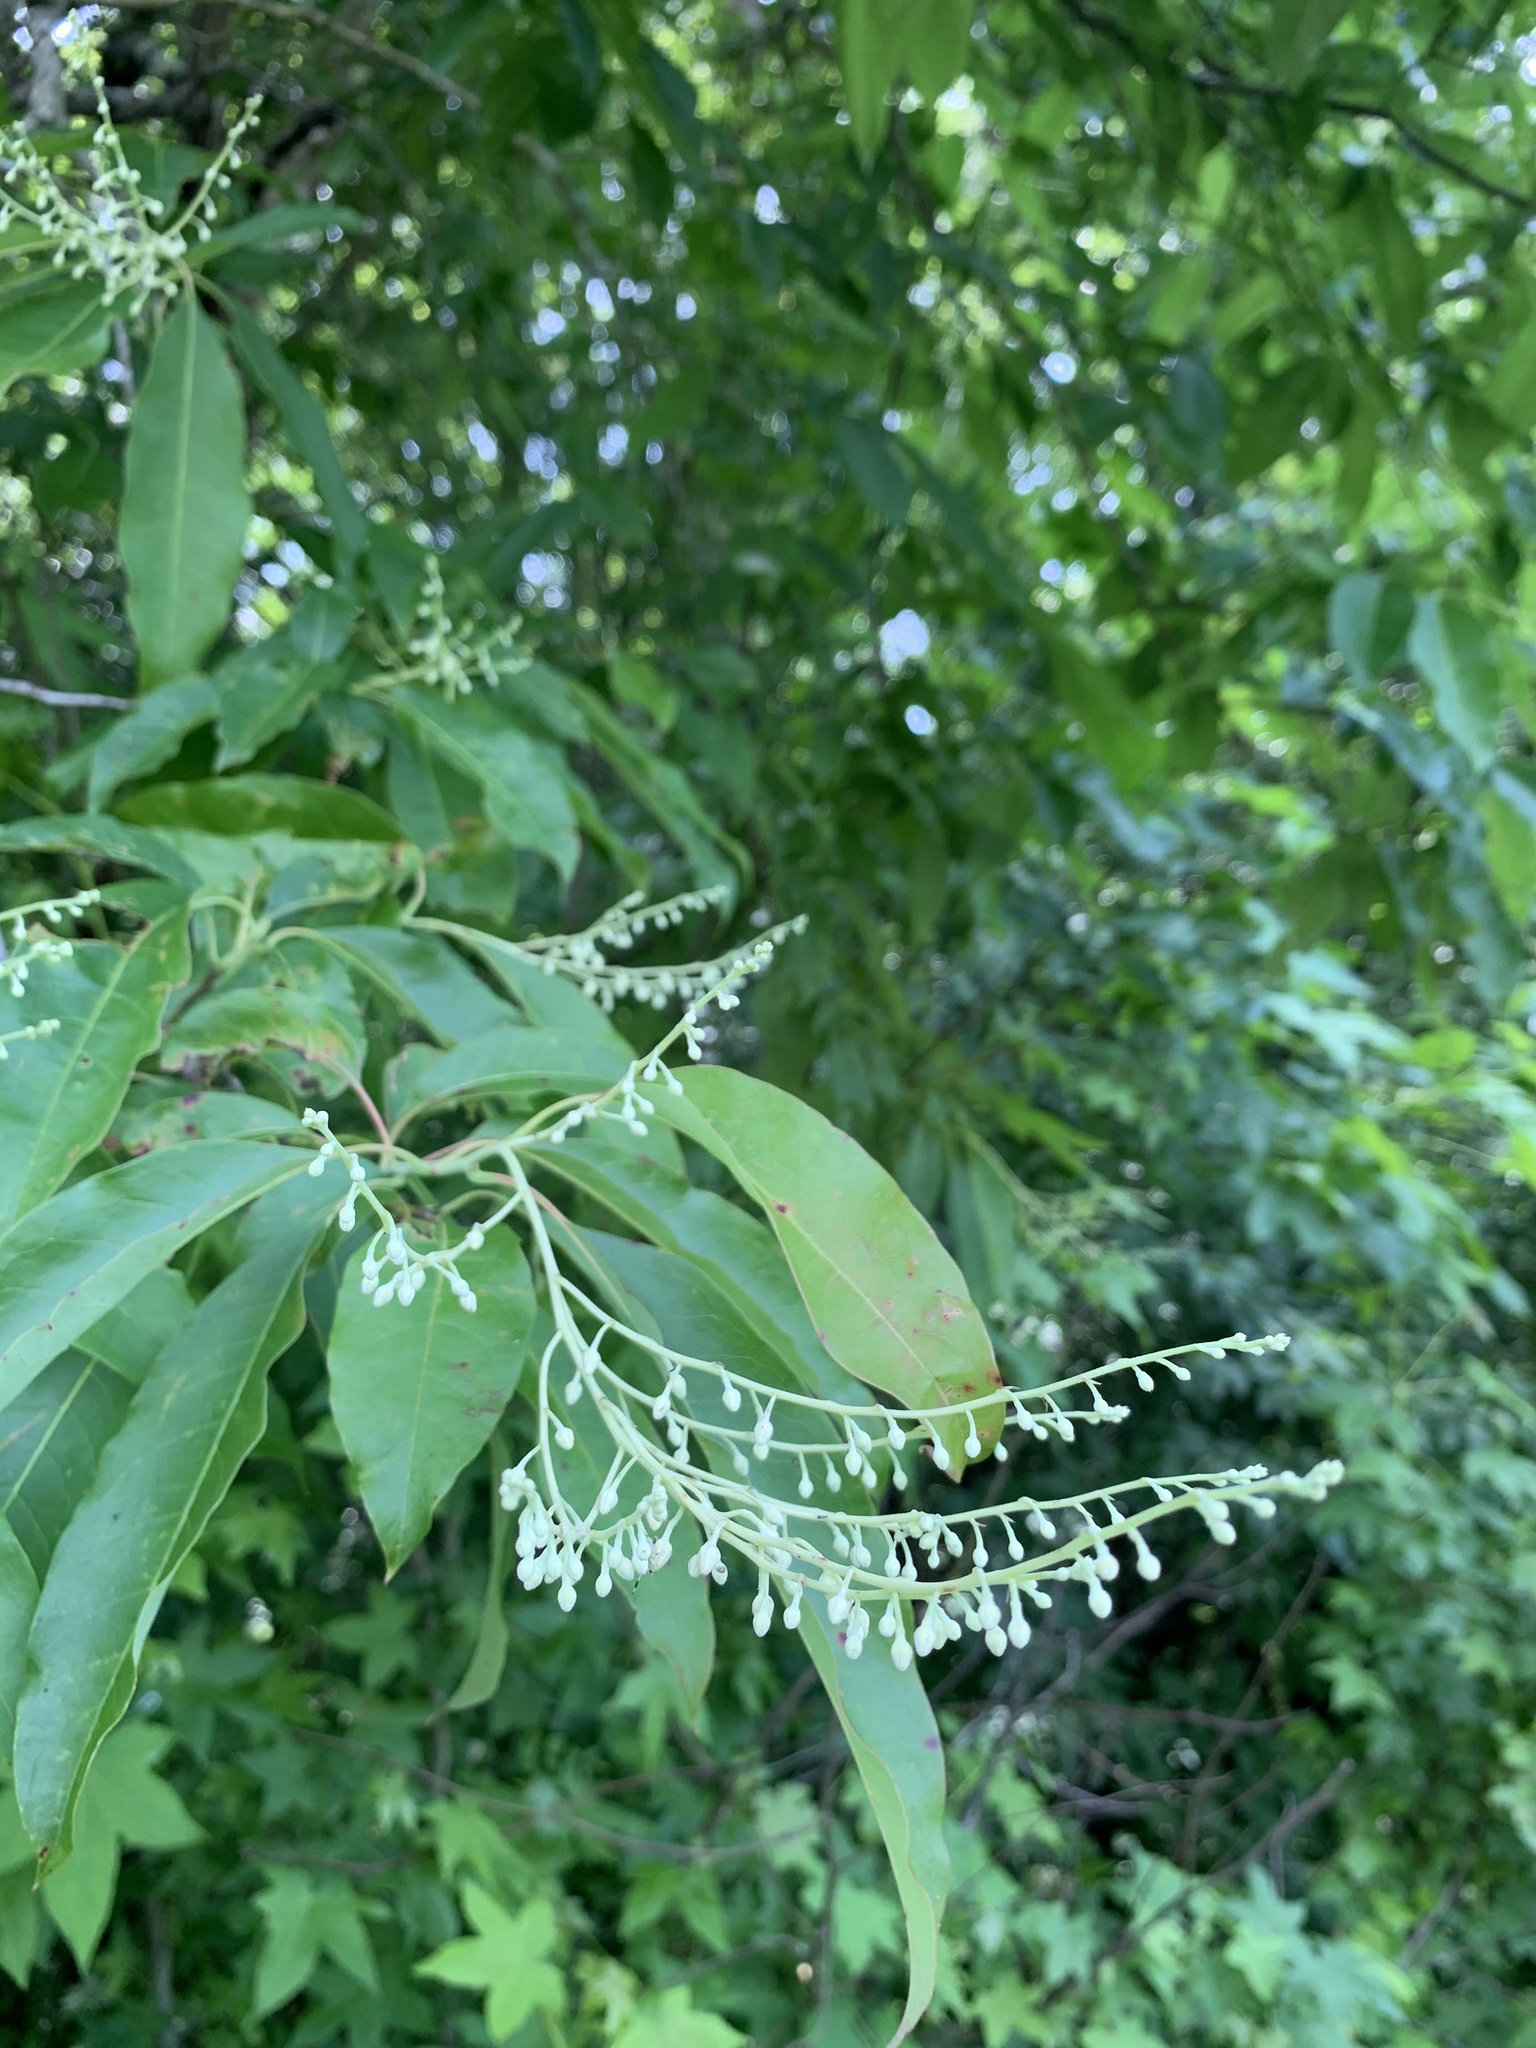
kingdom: Plantae
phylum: Tracheophyta
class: Magnoliopsida
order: Ericales
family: Ericaceae
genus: Oxydendrum
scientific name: Oxydendrum arboreum
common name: Sourwood
